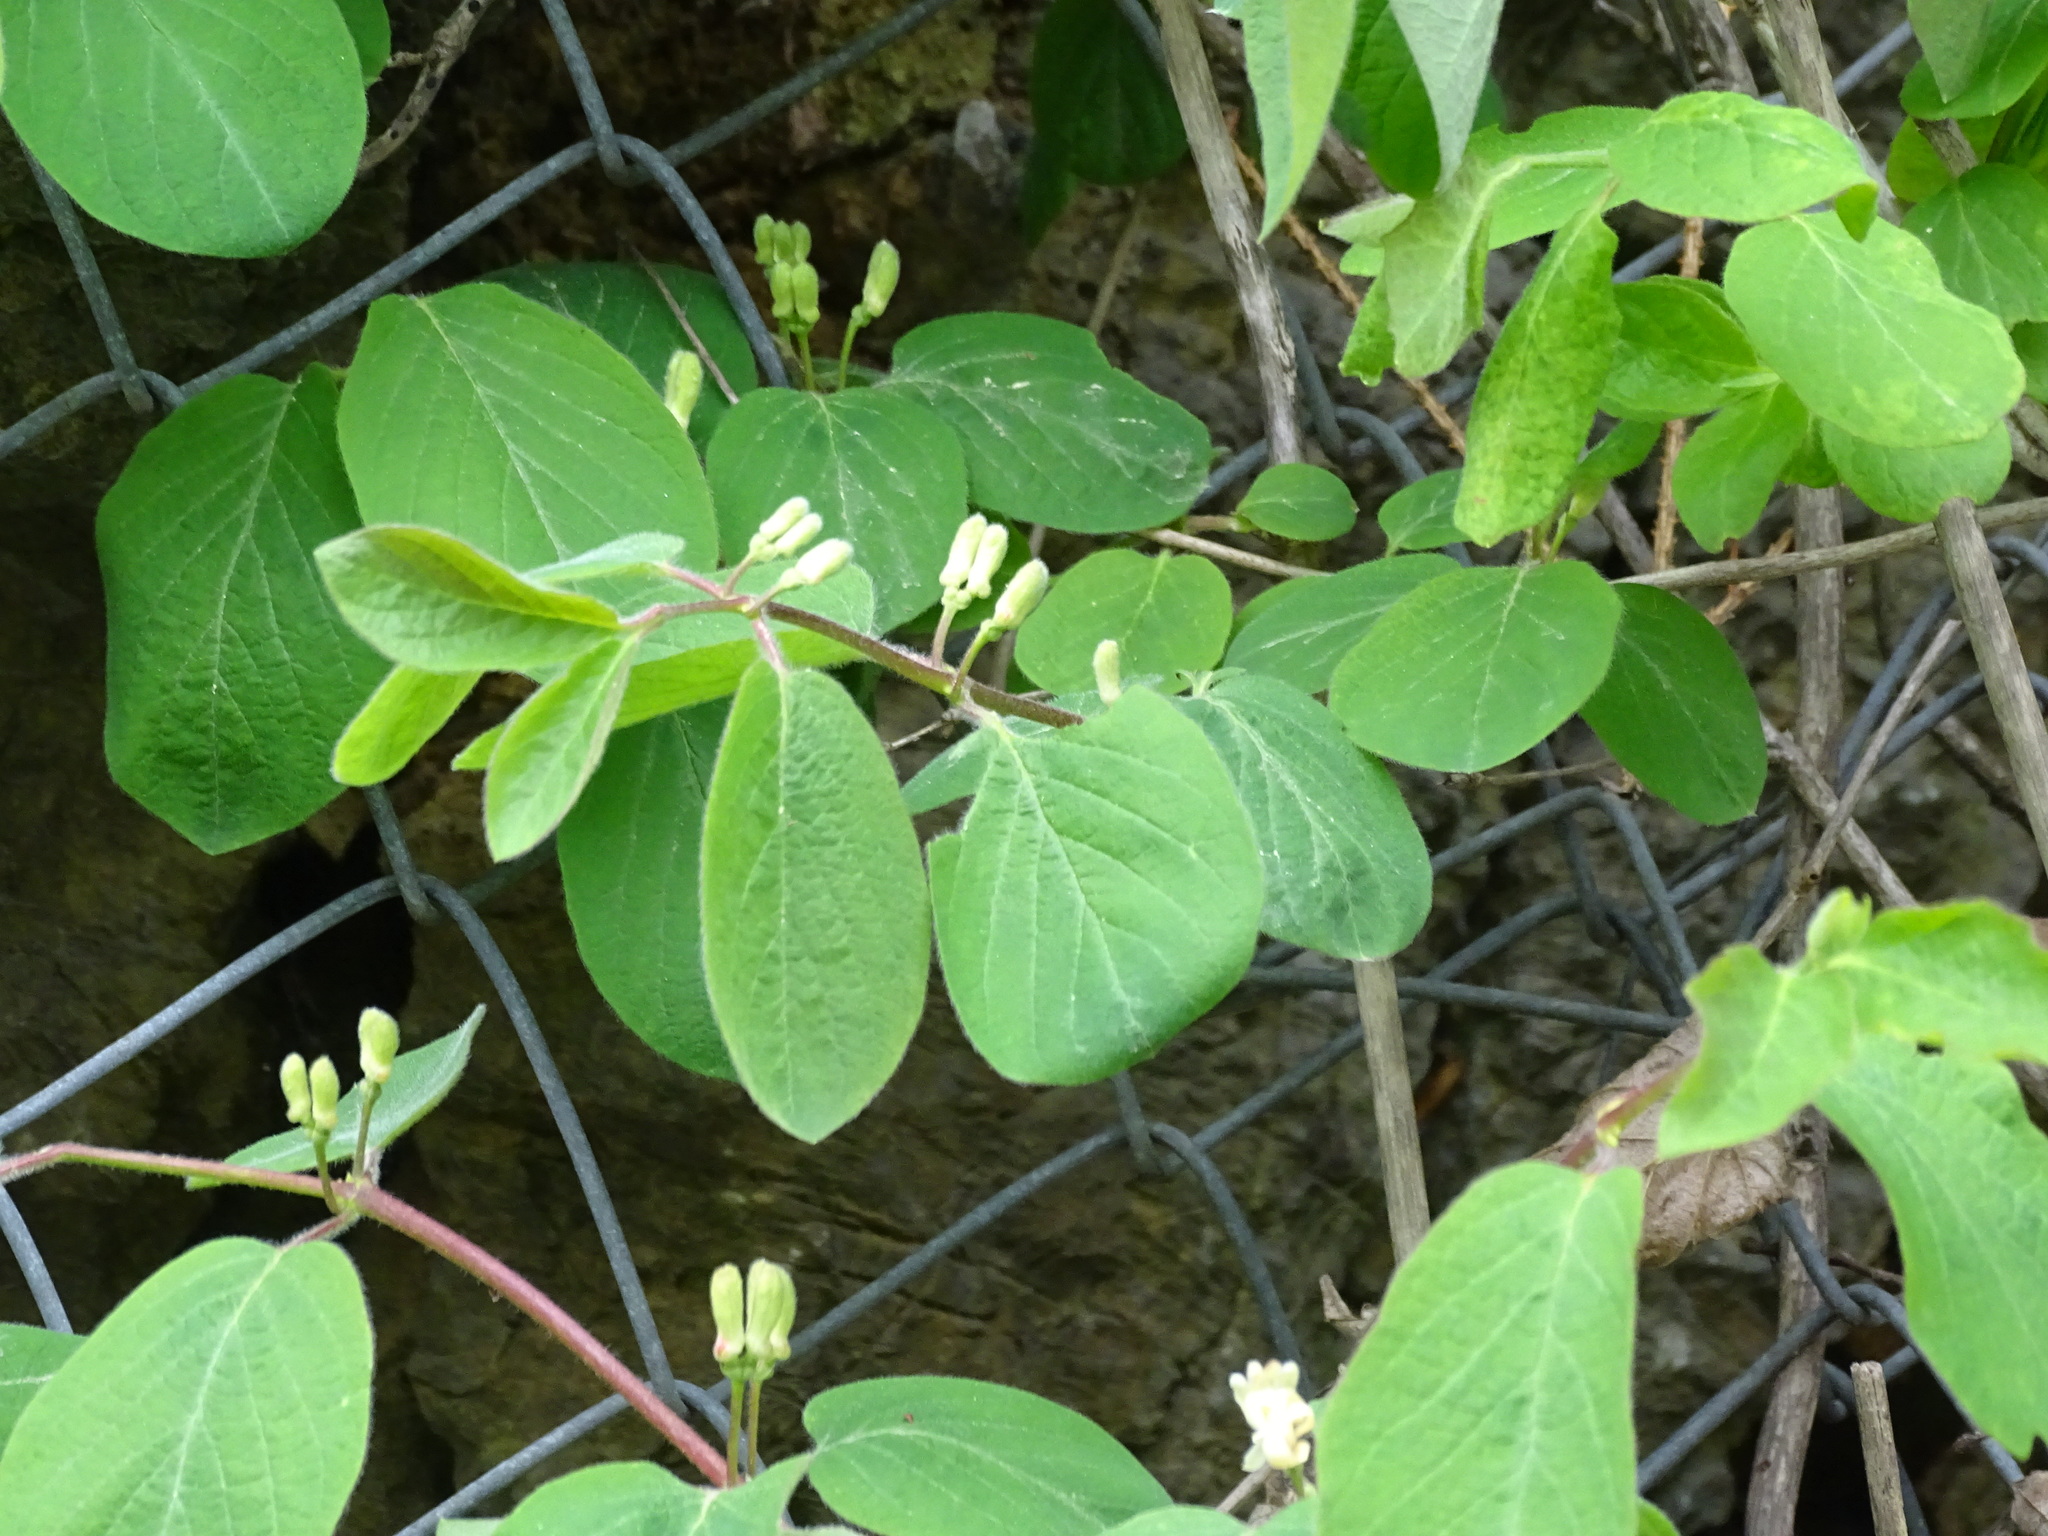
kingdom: Plantae
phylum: Tracheophyta
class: Magnoliopsida
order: Dipsacales
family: Caprifoliaceae
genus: Lonicera
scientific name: Lonicera xylosteum
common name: Fly honeysuckle
